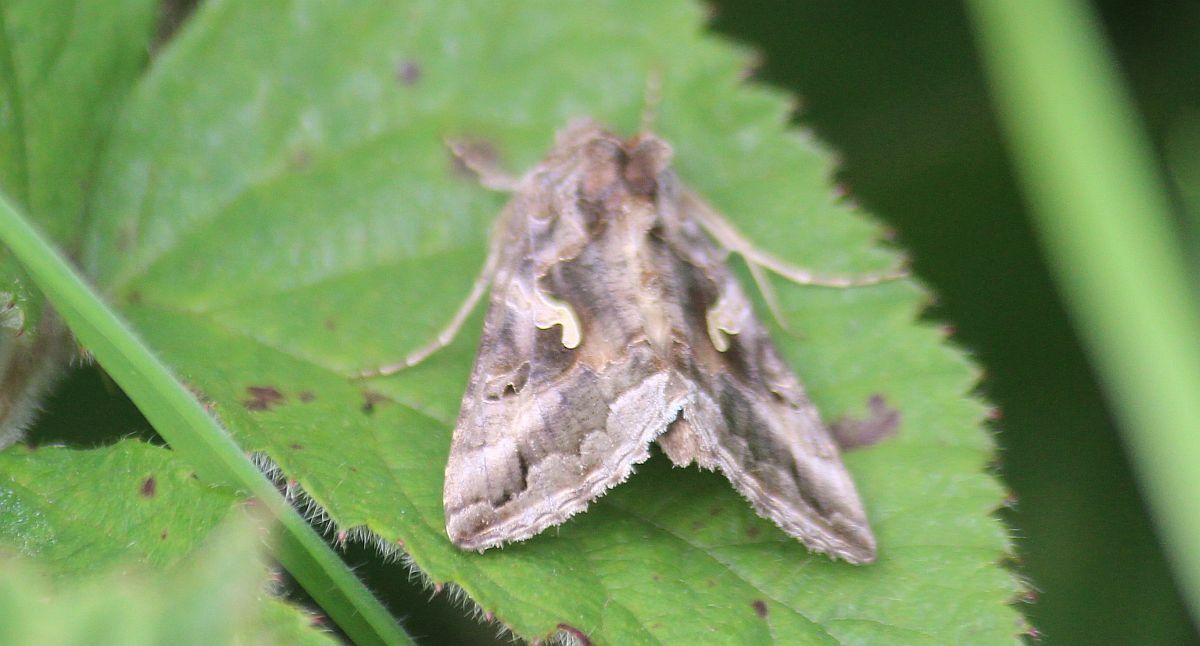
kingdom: Animalia
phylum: Arthropoda
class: Insecta
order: Lepidoptera
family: Noctuidae
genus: Autographa
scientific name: Autographa gamma
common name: Silver y
